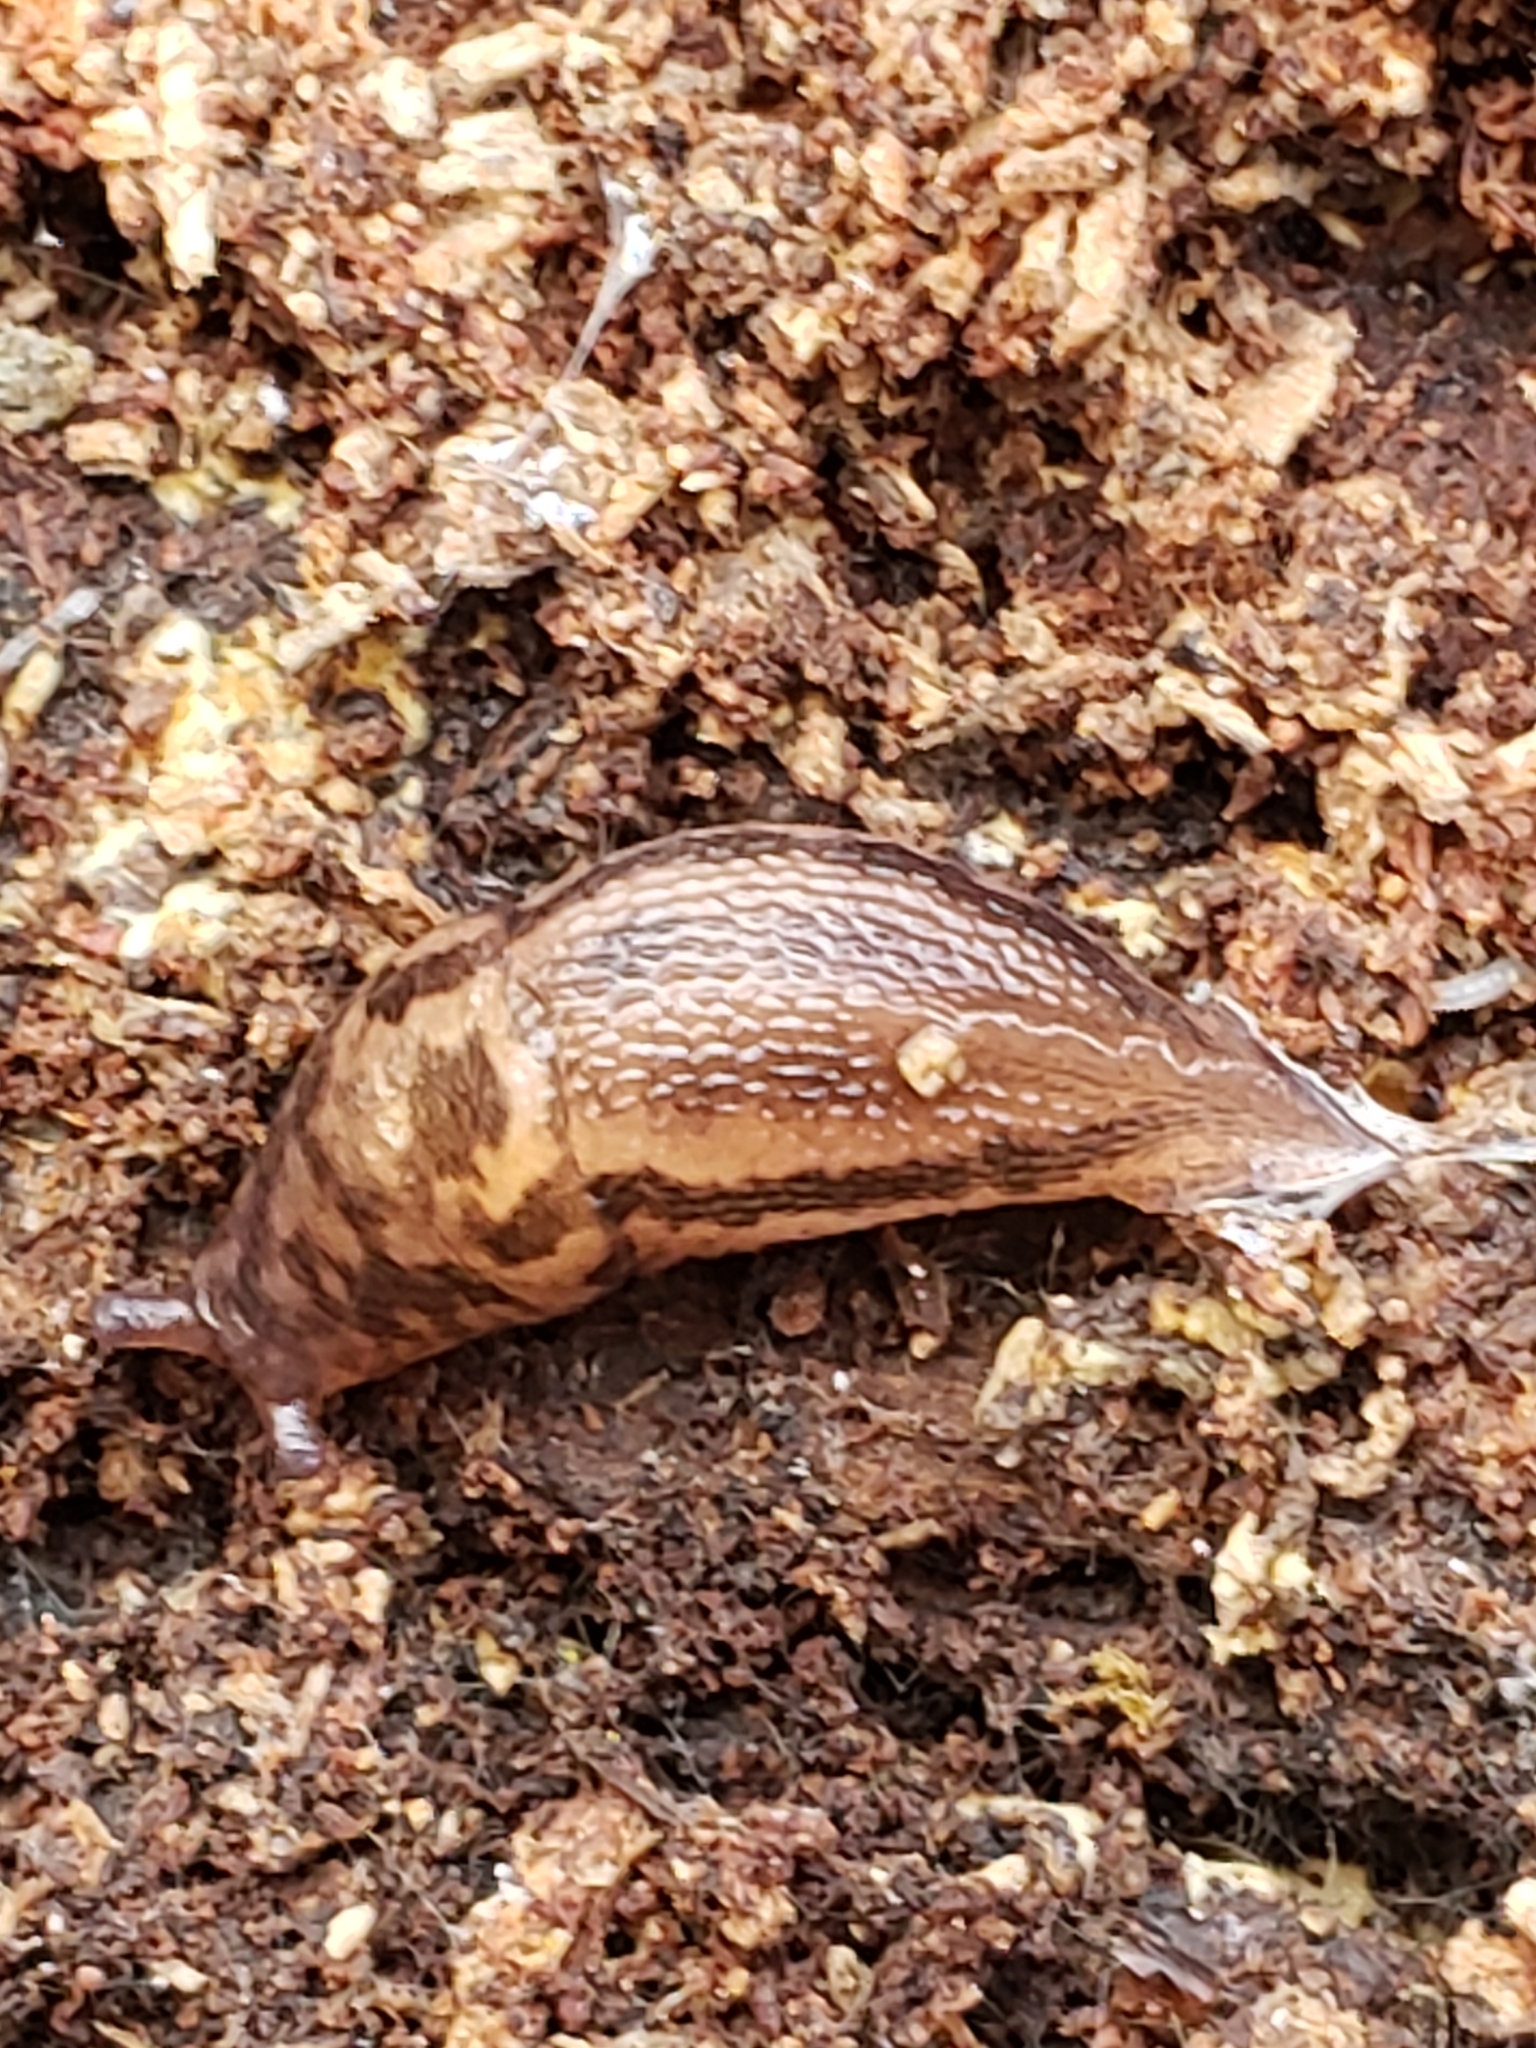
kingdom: Animalia
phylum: Mollusca
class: Gastropoda
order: Stylommatophora
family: Limacidae
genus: Limax
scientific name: Limax maximus
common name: Great grey slug
